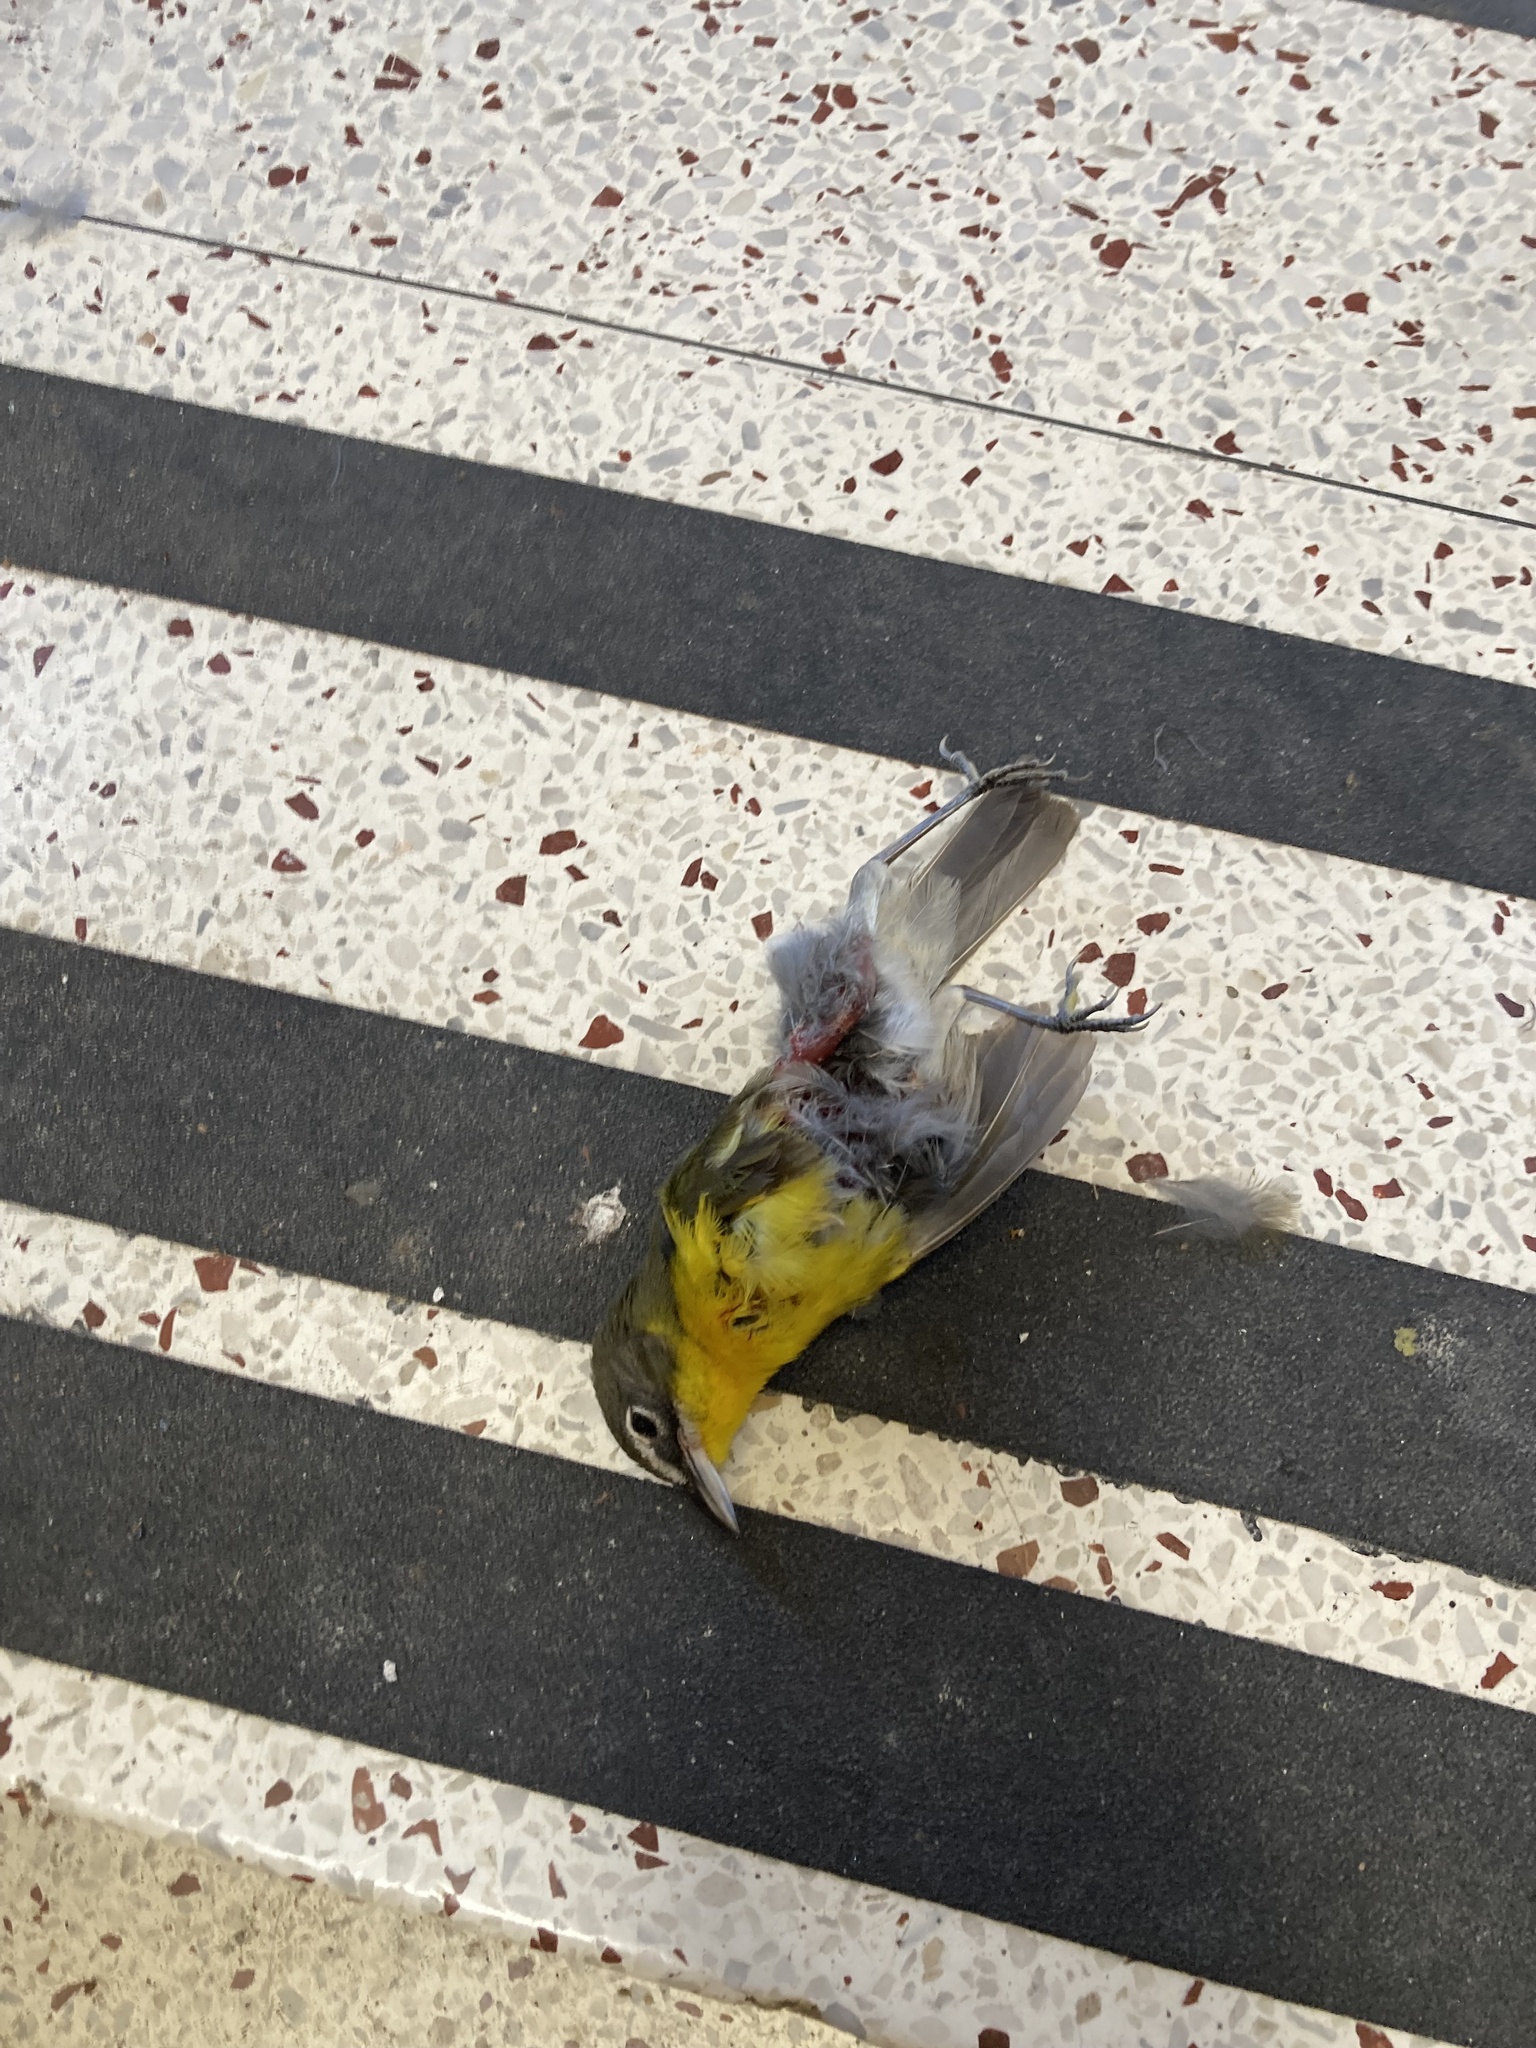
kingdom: Animalia
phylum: Chordata
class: Aves
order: Passeriformes
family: Parulidae
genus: Icteria
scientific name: Icteria virens
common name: Yellow-breasted chat
